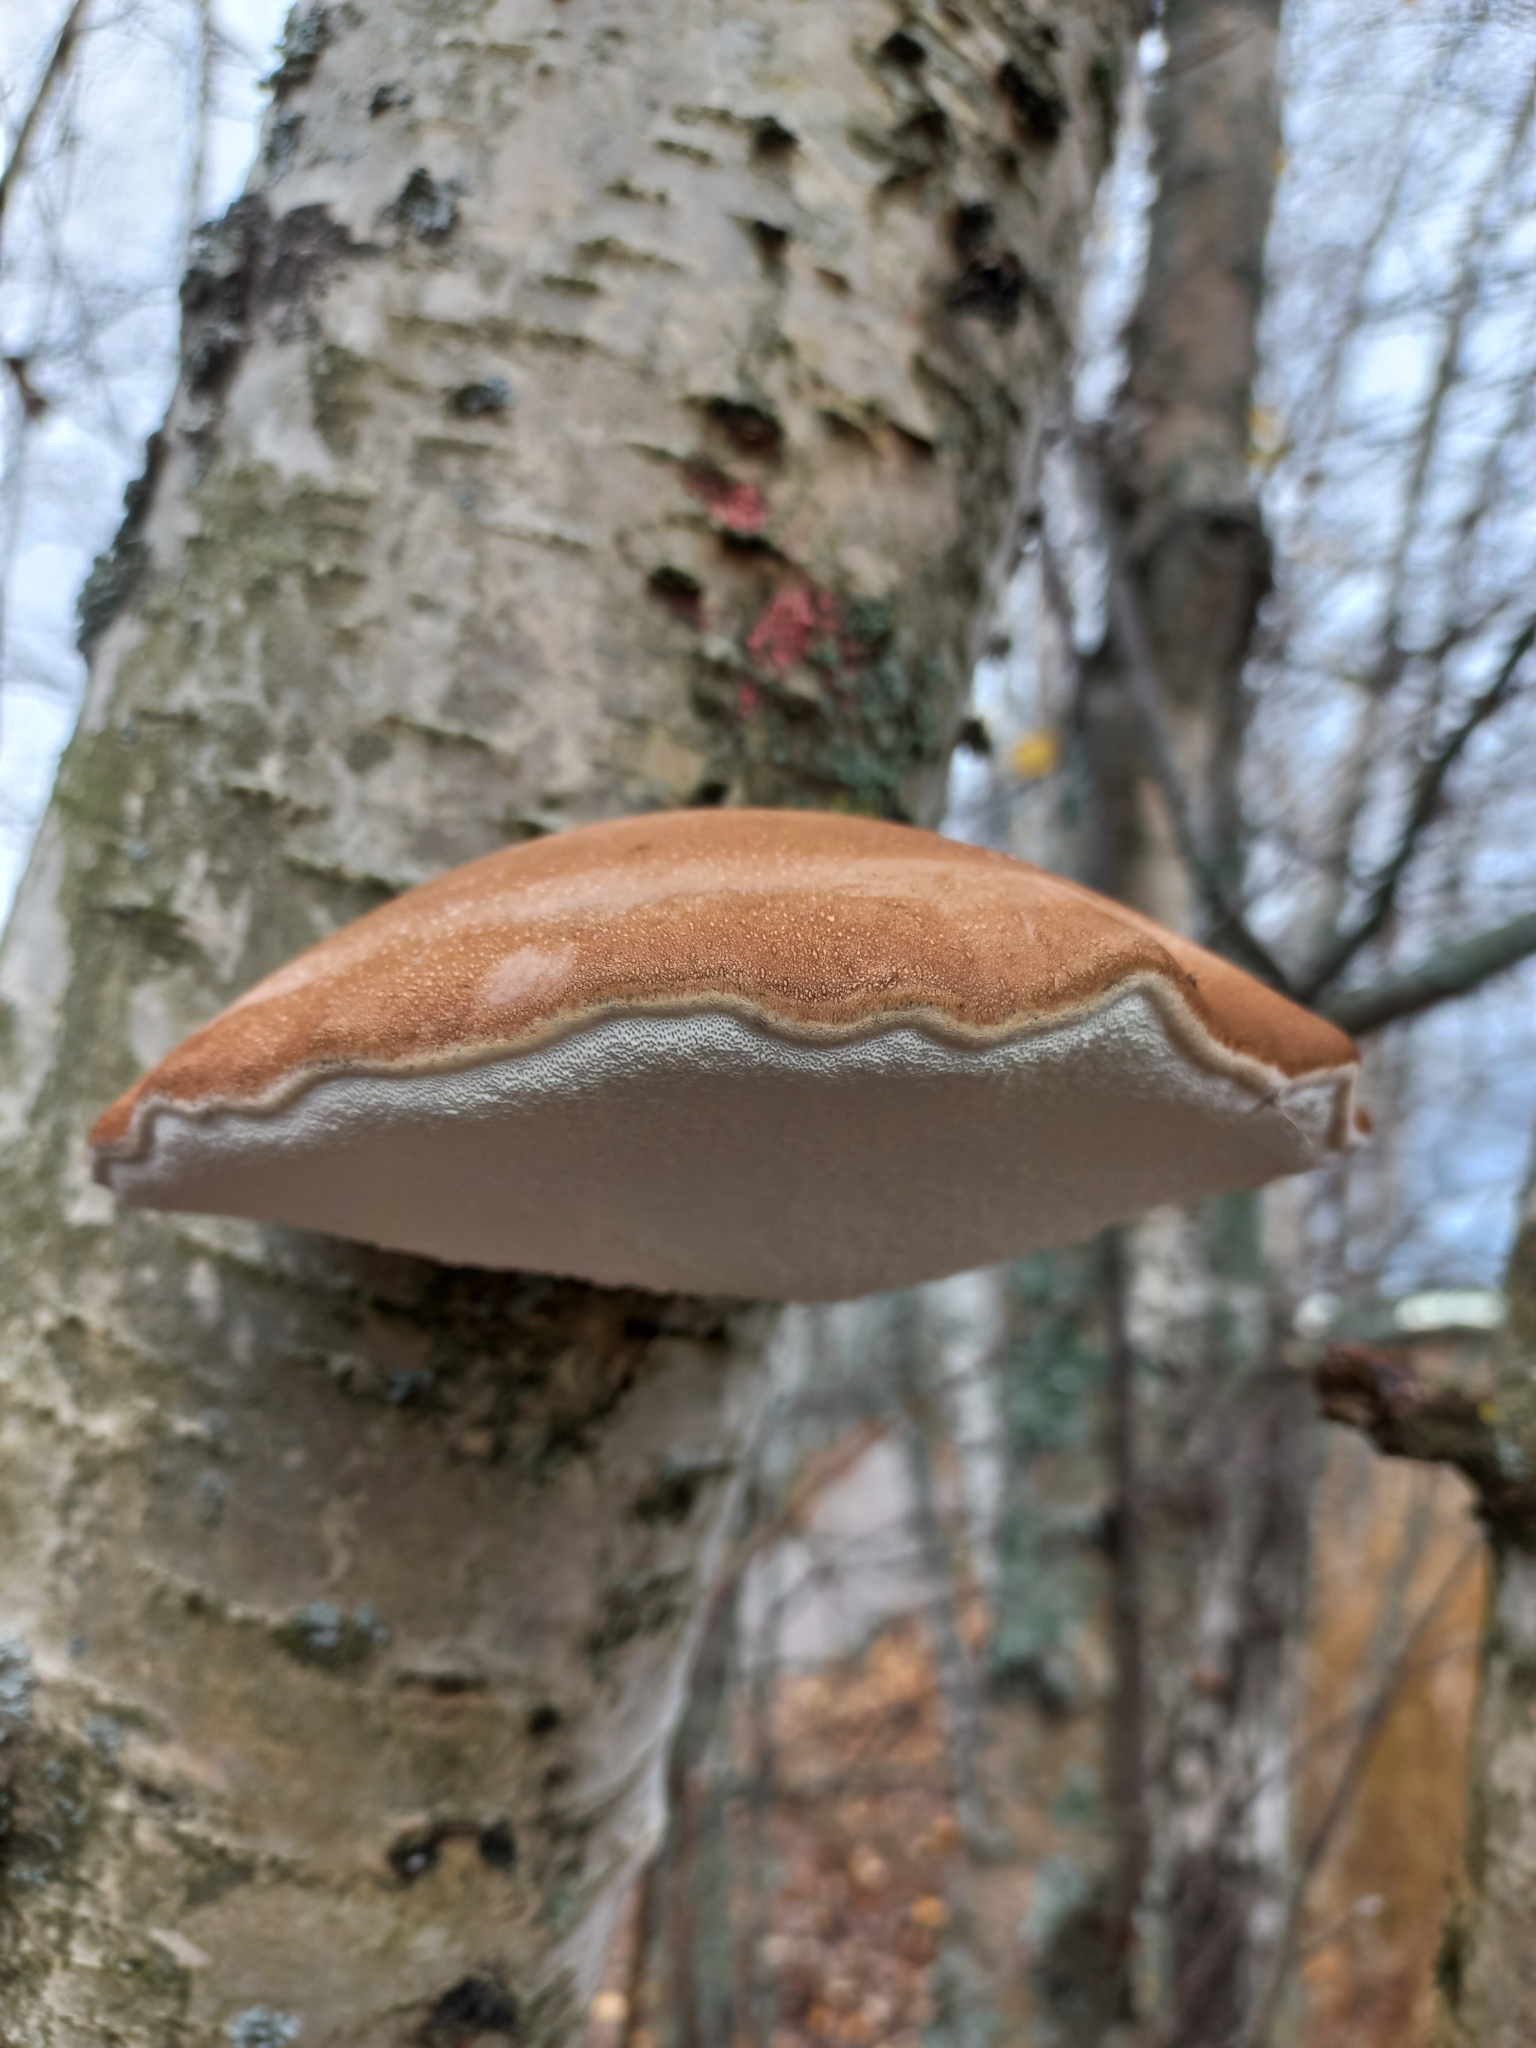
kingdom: Fungi
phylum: Basidiomycota
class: Agaricomycetes
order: Polyporales
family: Fomitopsidaceae
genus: Fomitopsis
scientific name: Fomitopsis betulina
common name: Birch polypore
